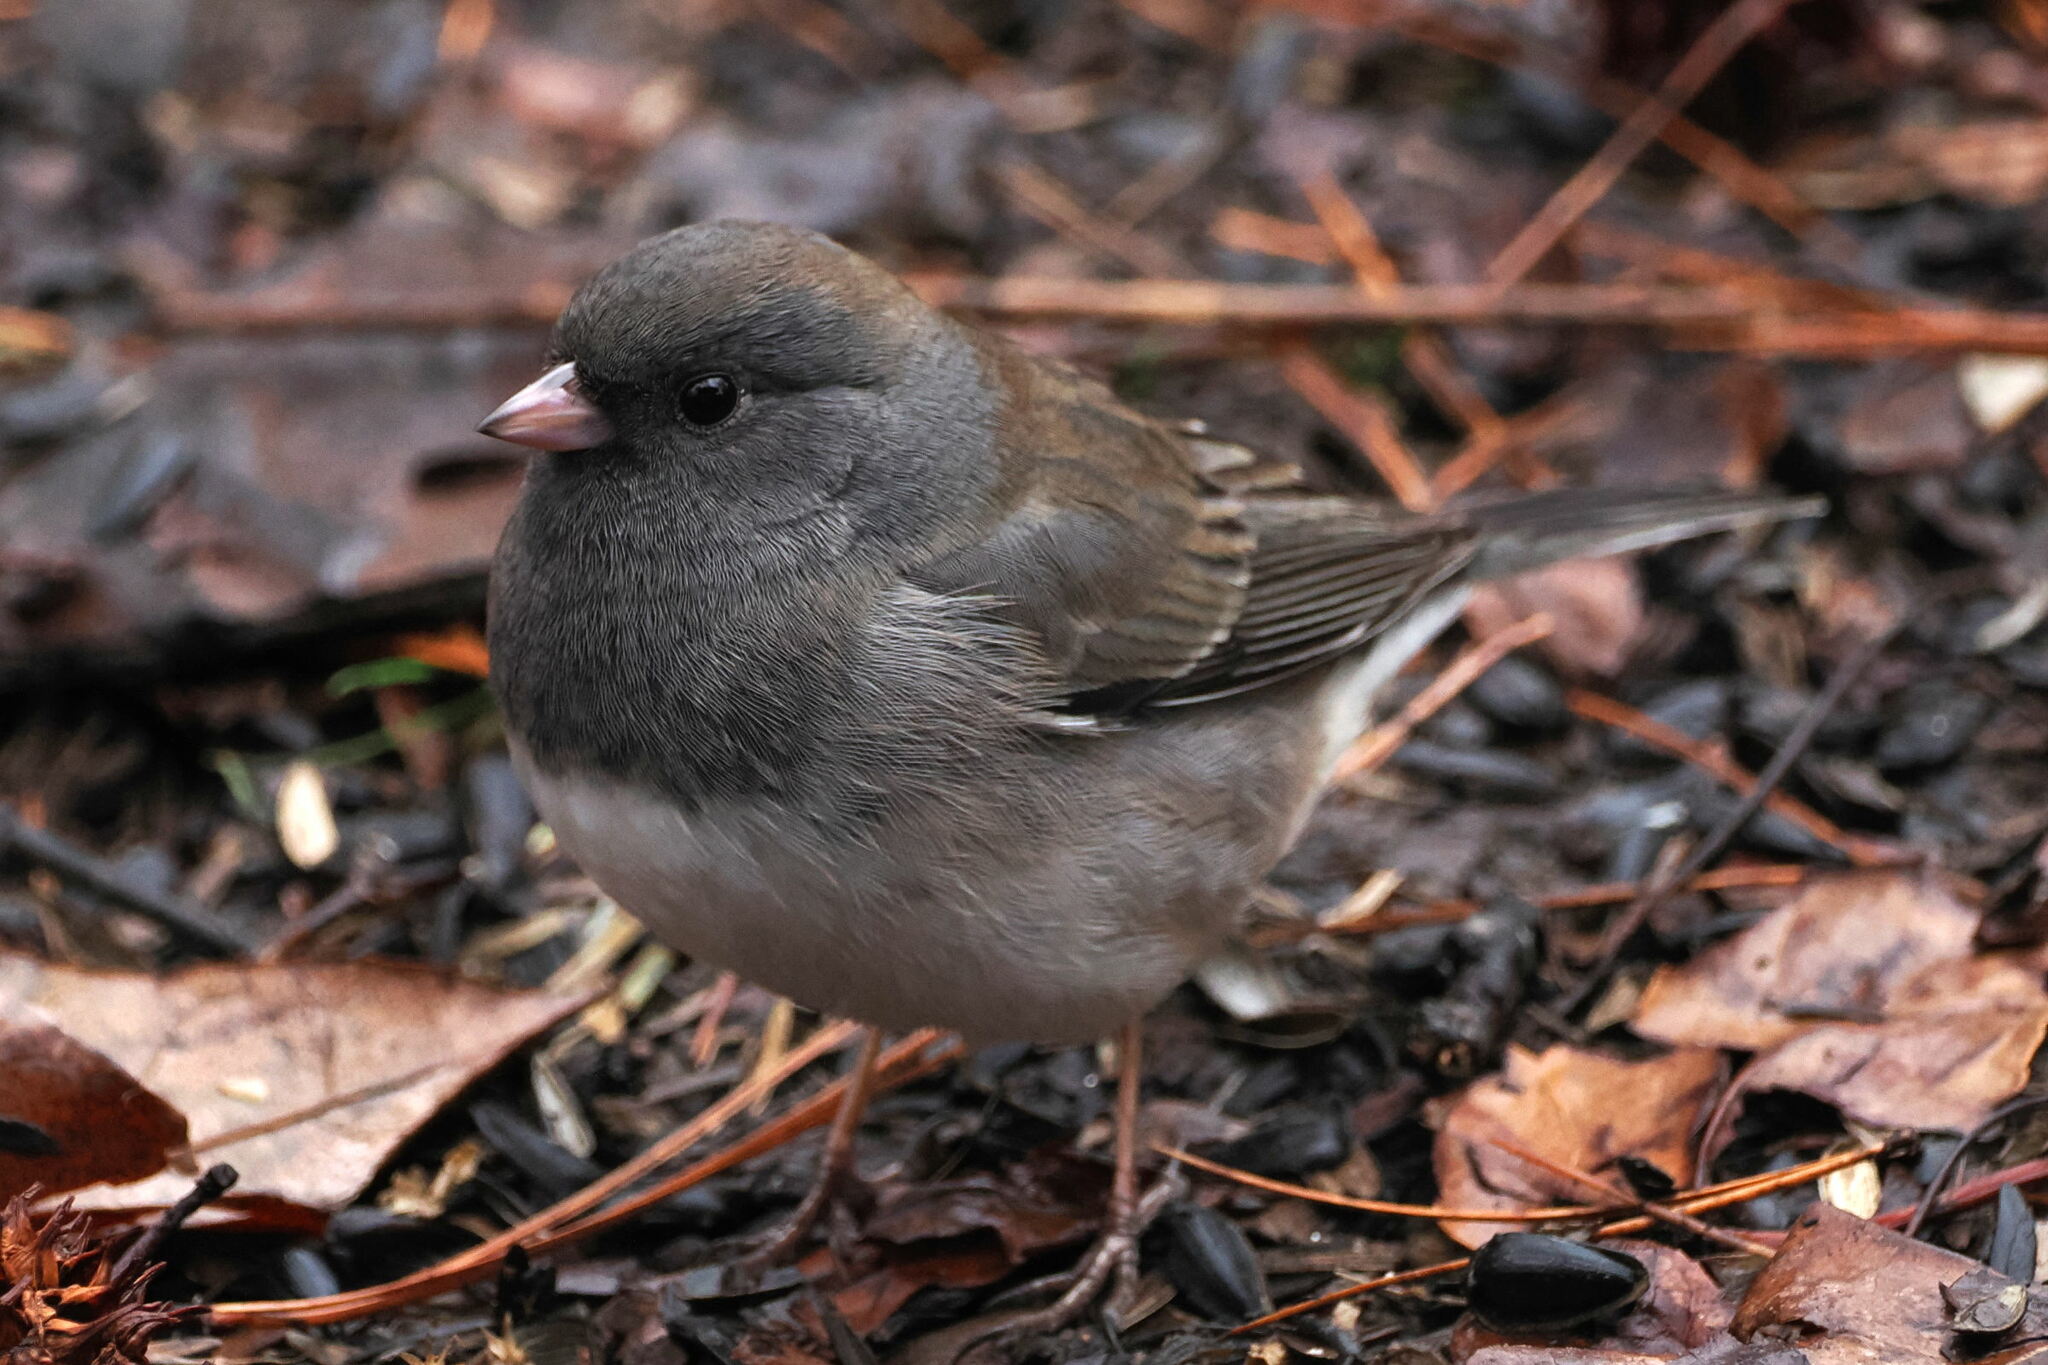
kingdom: Animalia
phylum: Chordata
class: Aves
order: Passeriformes
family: Passerellidae
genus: Junco
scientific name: Junco hyemalis
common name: Dark-eyed junco
